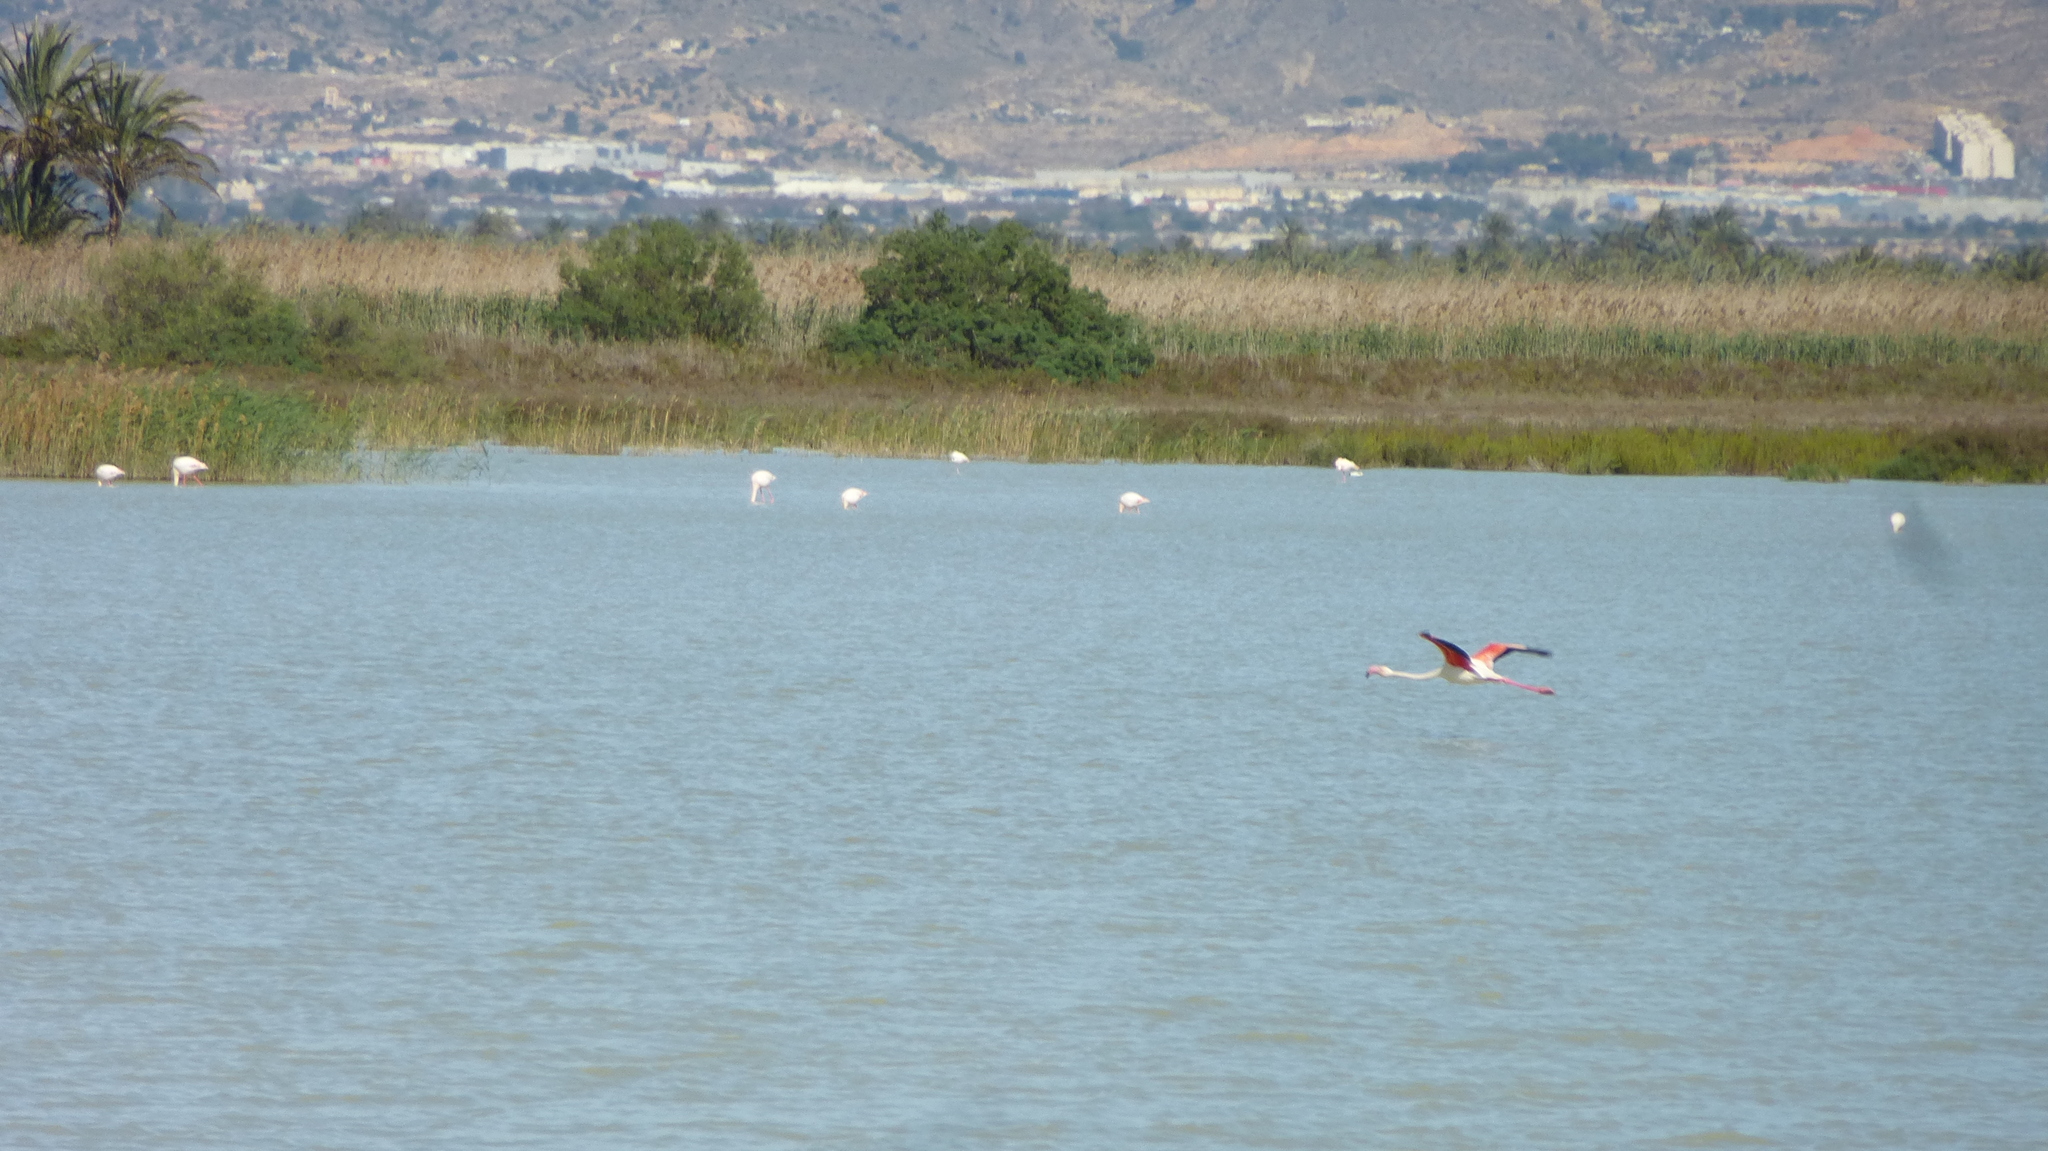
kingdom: Animalia
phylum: Chordata
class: Aves
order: Phoenicopteriformes
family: Phoenicopteridae
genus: Phoenicopterus
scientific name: Phoenicopterus roseus
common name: Greater flamingo
